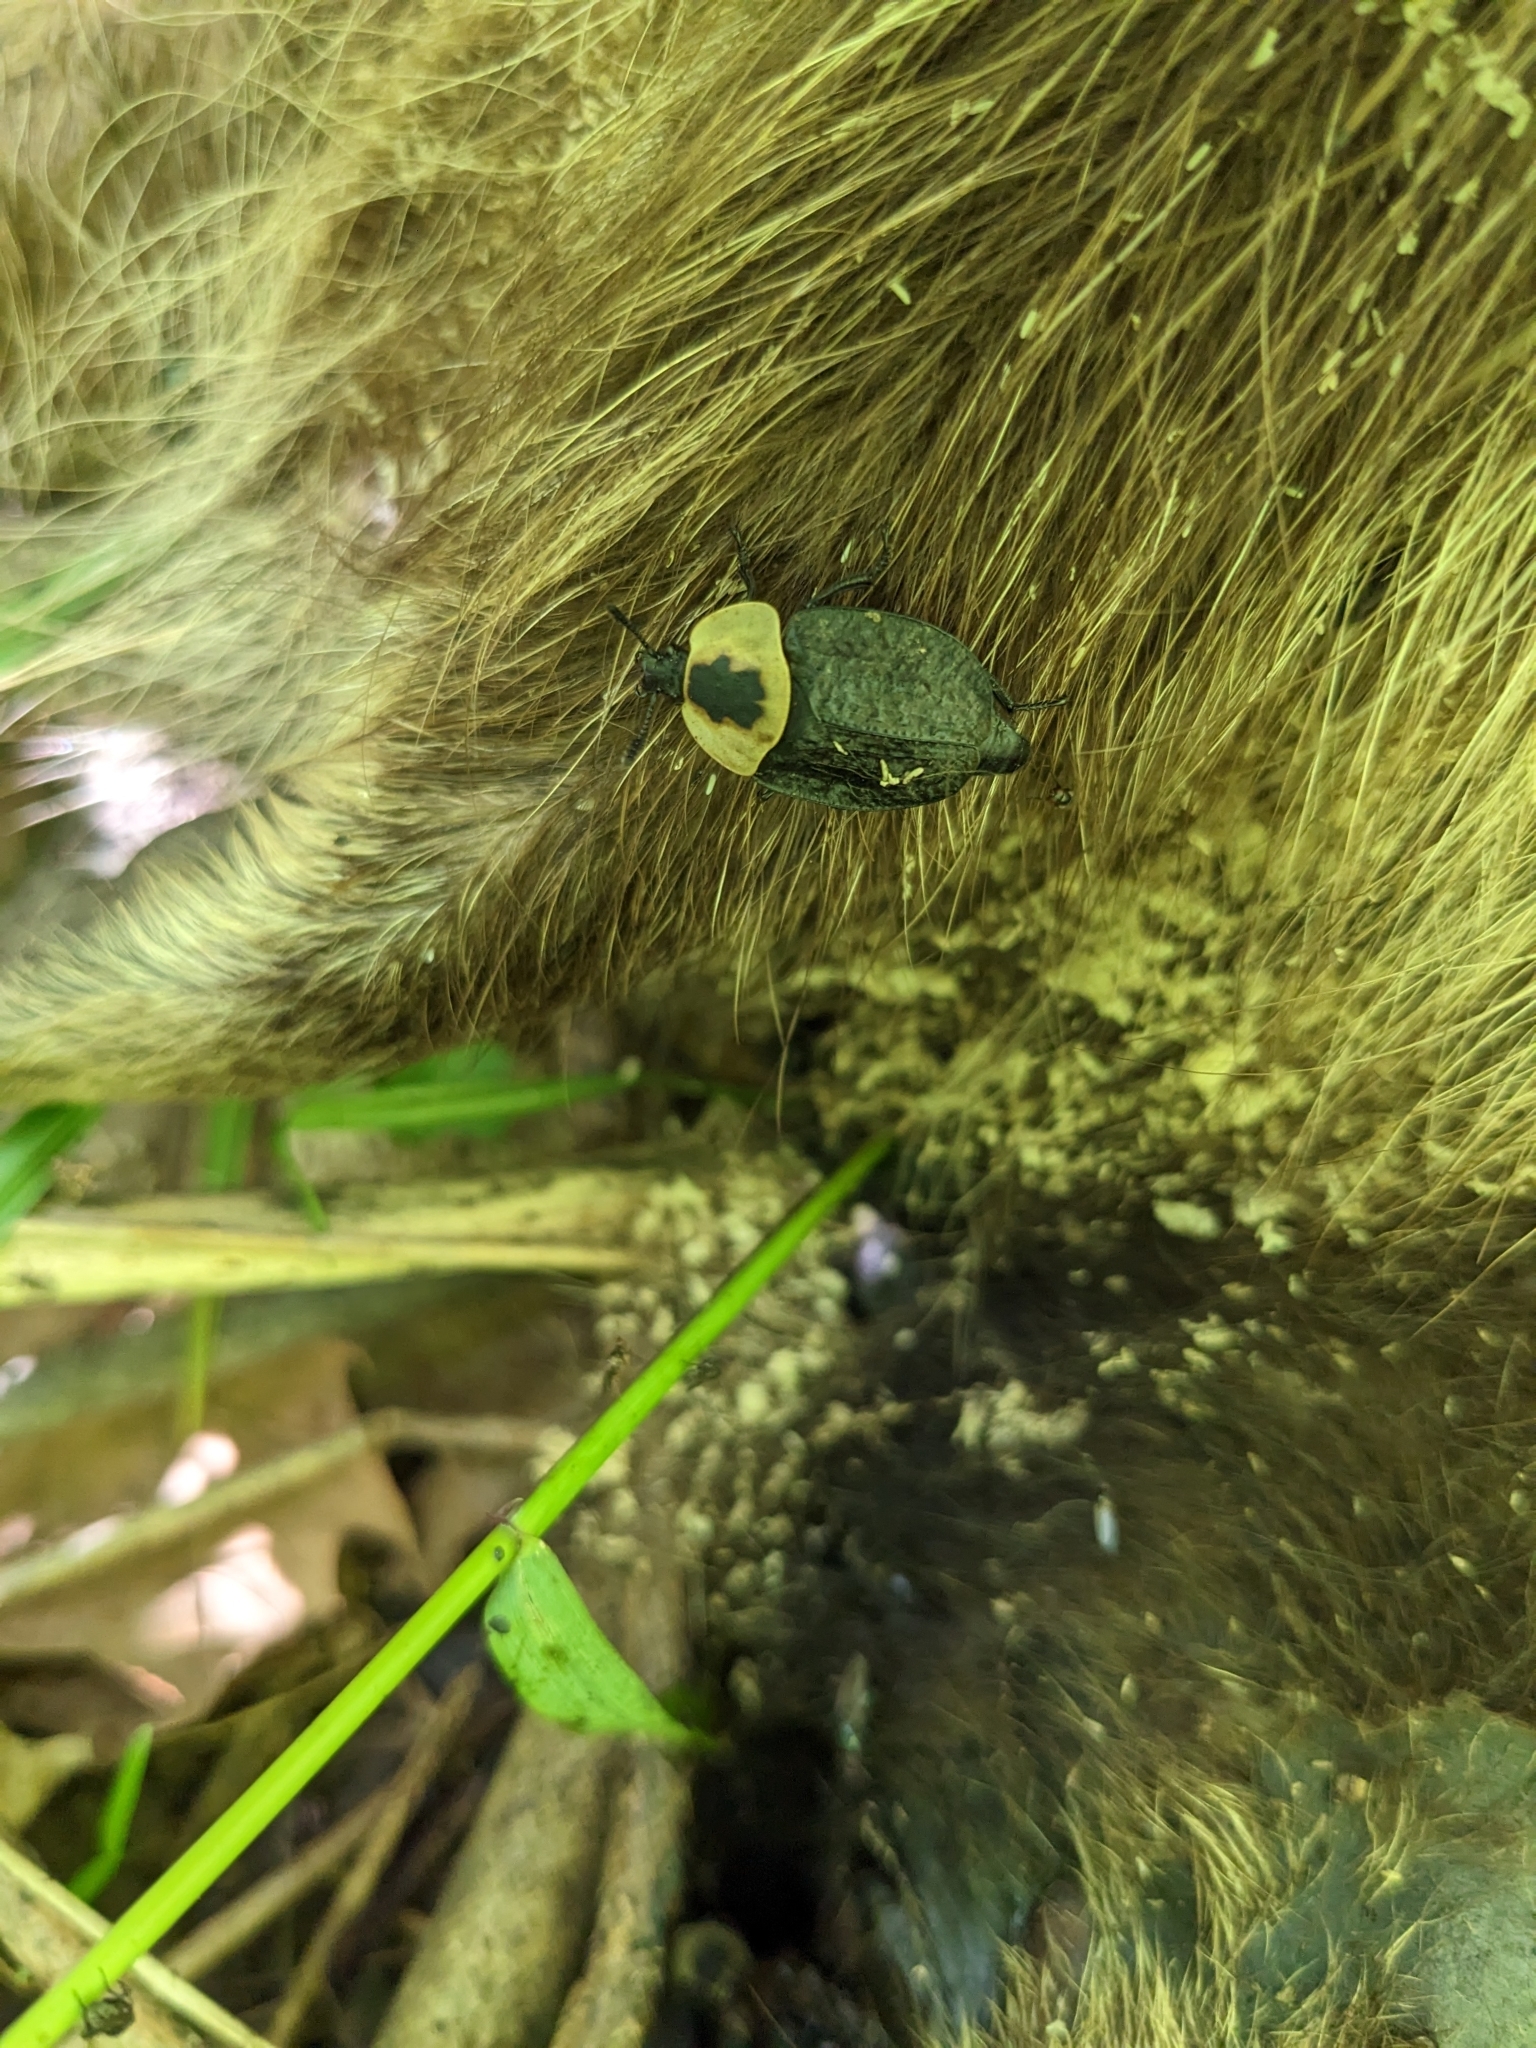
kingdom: Animalia
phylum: Arthropoda
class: Insecta
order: Coleoptera
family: Staphylinidae
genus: Necrophila
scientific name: Necrophila americana
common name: American carrion beetle
